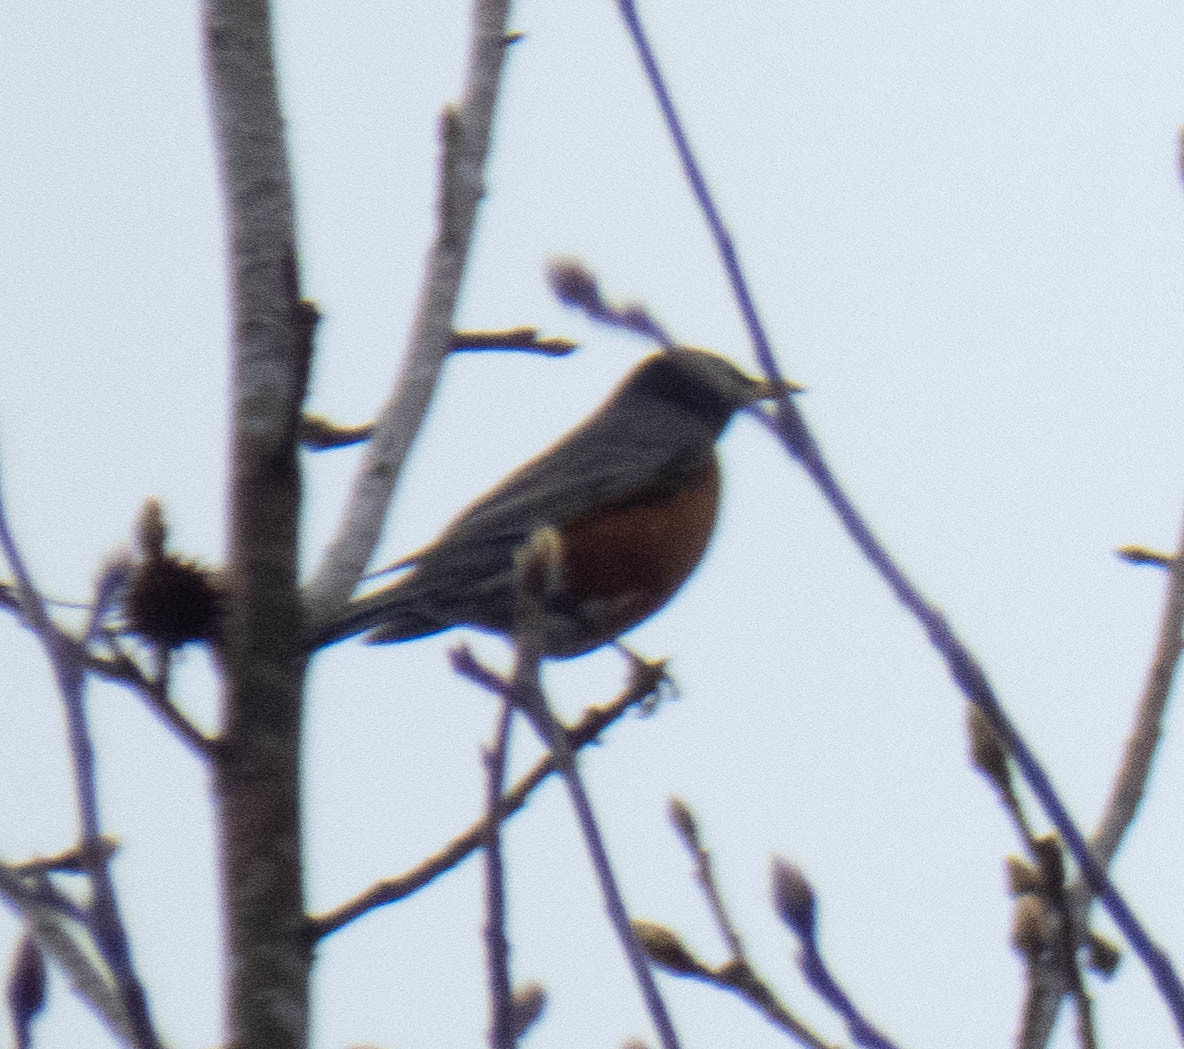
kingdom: Animalia
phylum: Chordata
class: Aves
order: Passeriformes
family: Turdidae
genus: Turdus
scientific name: Turdus migratorius
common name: American robin
